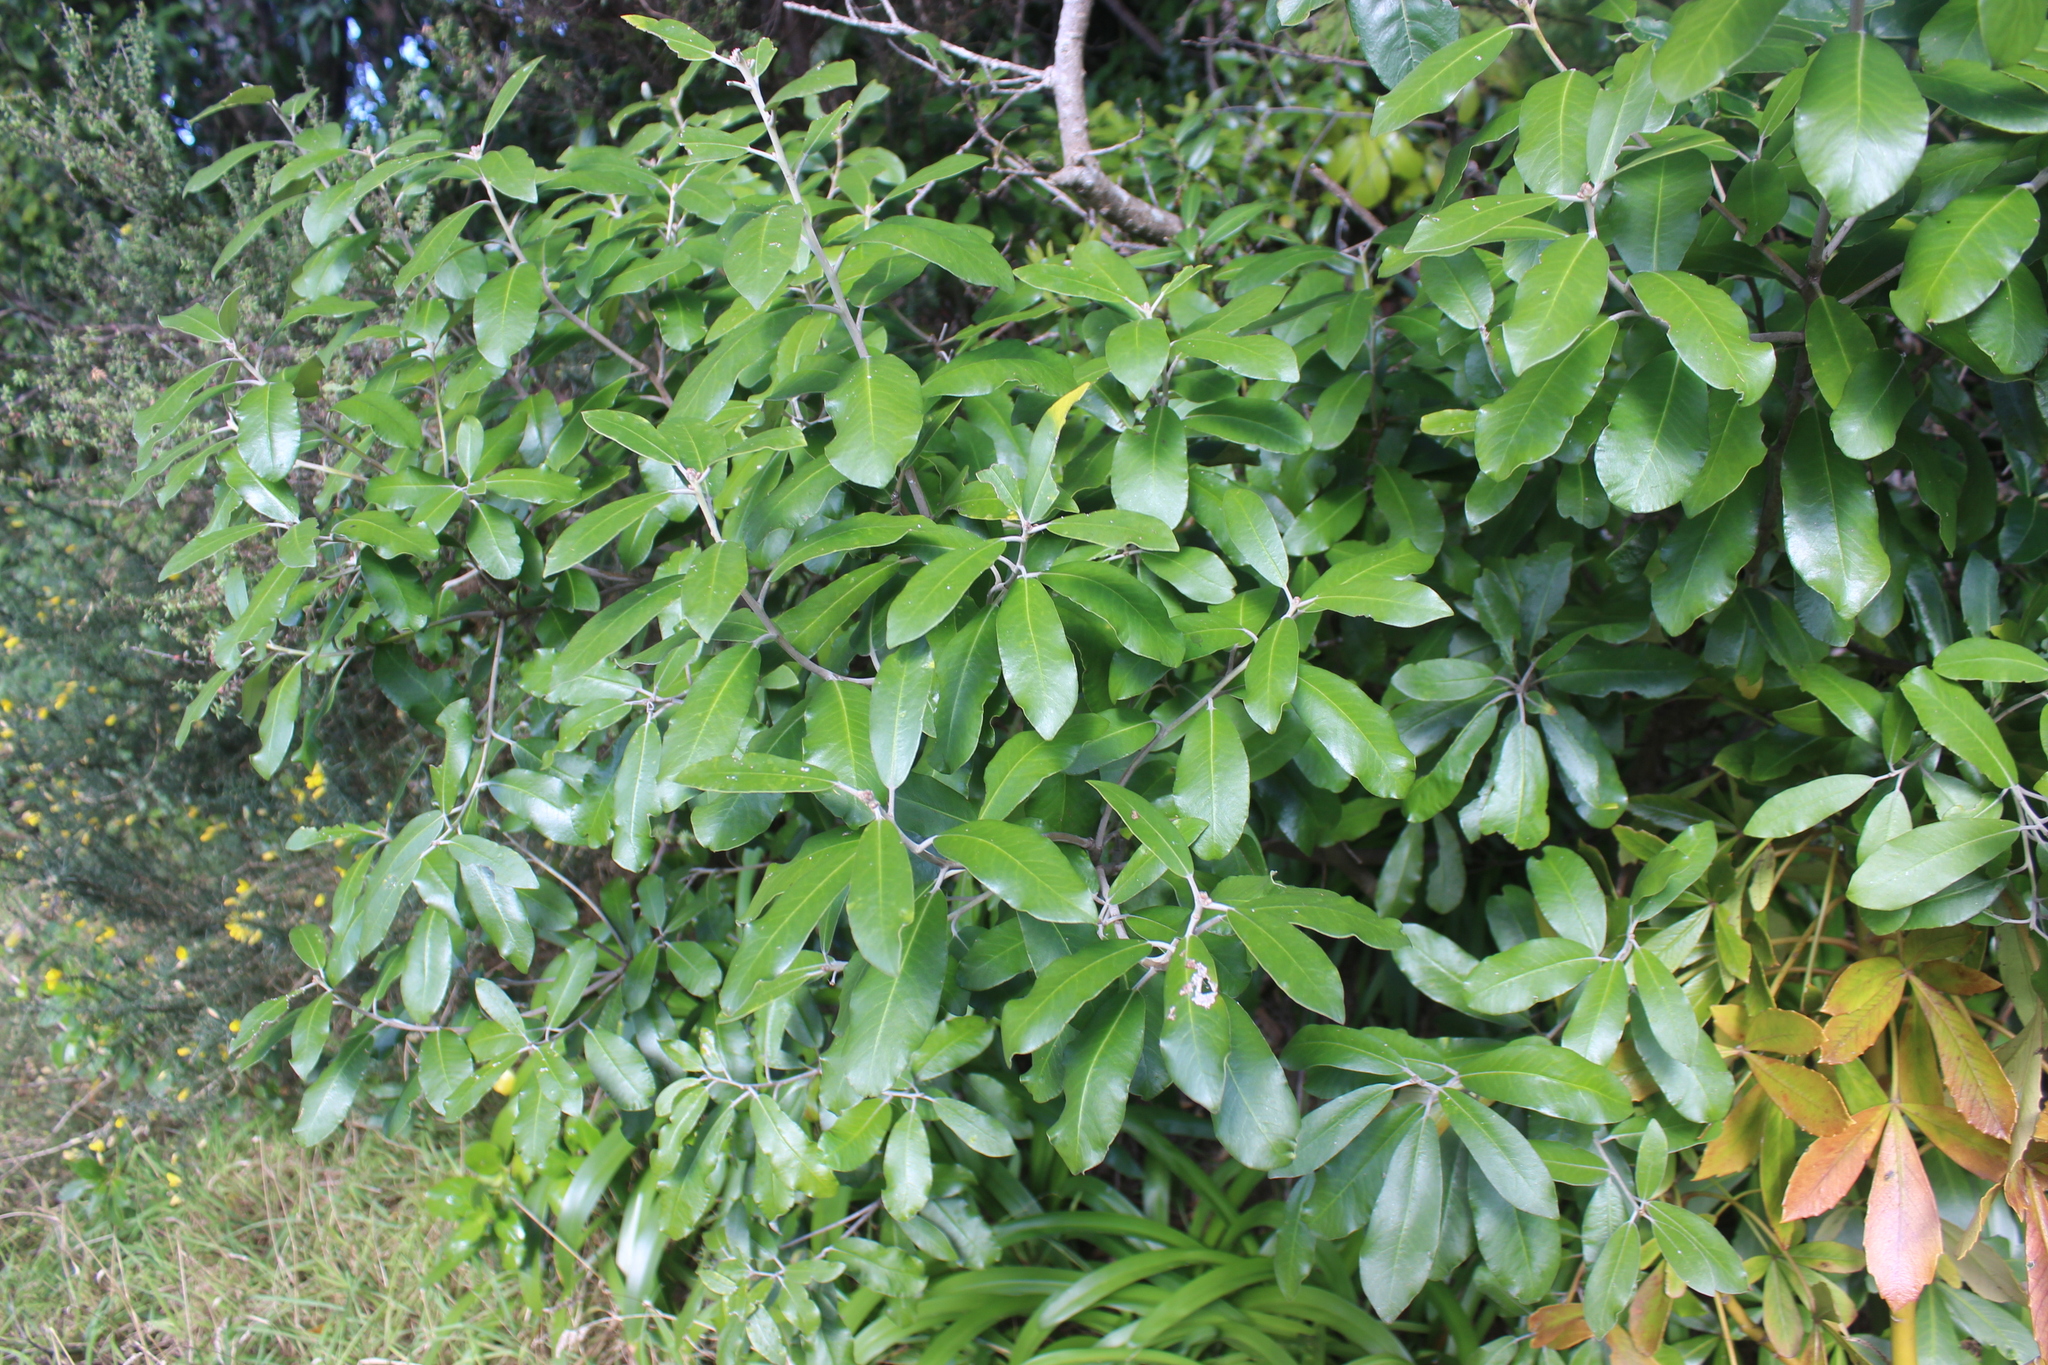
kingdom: Plantae
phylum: Tracheophyta
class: Magnoliopsida
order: Apiales
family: Pittosporaceae
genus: Pittosporum
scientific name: Pittosporum ralphii
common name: Ralph's desertwillow
